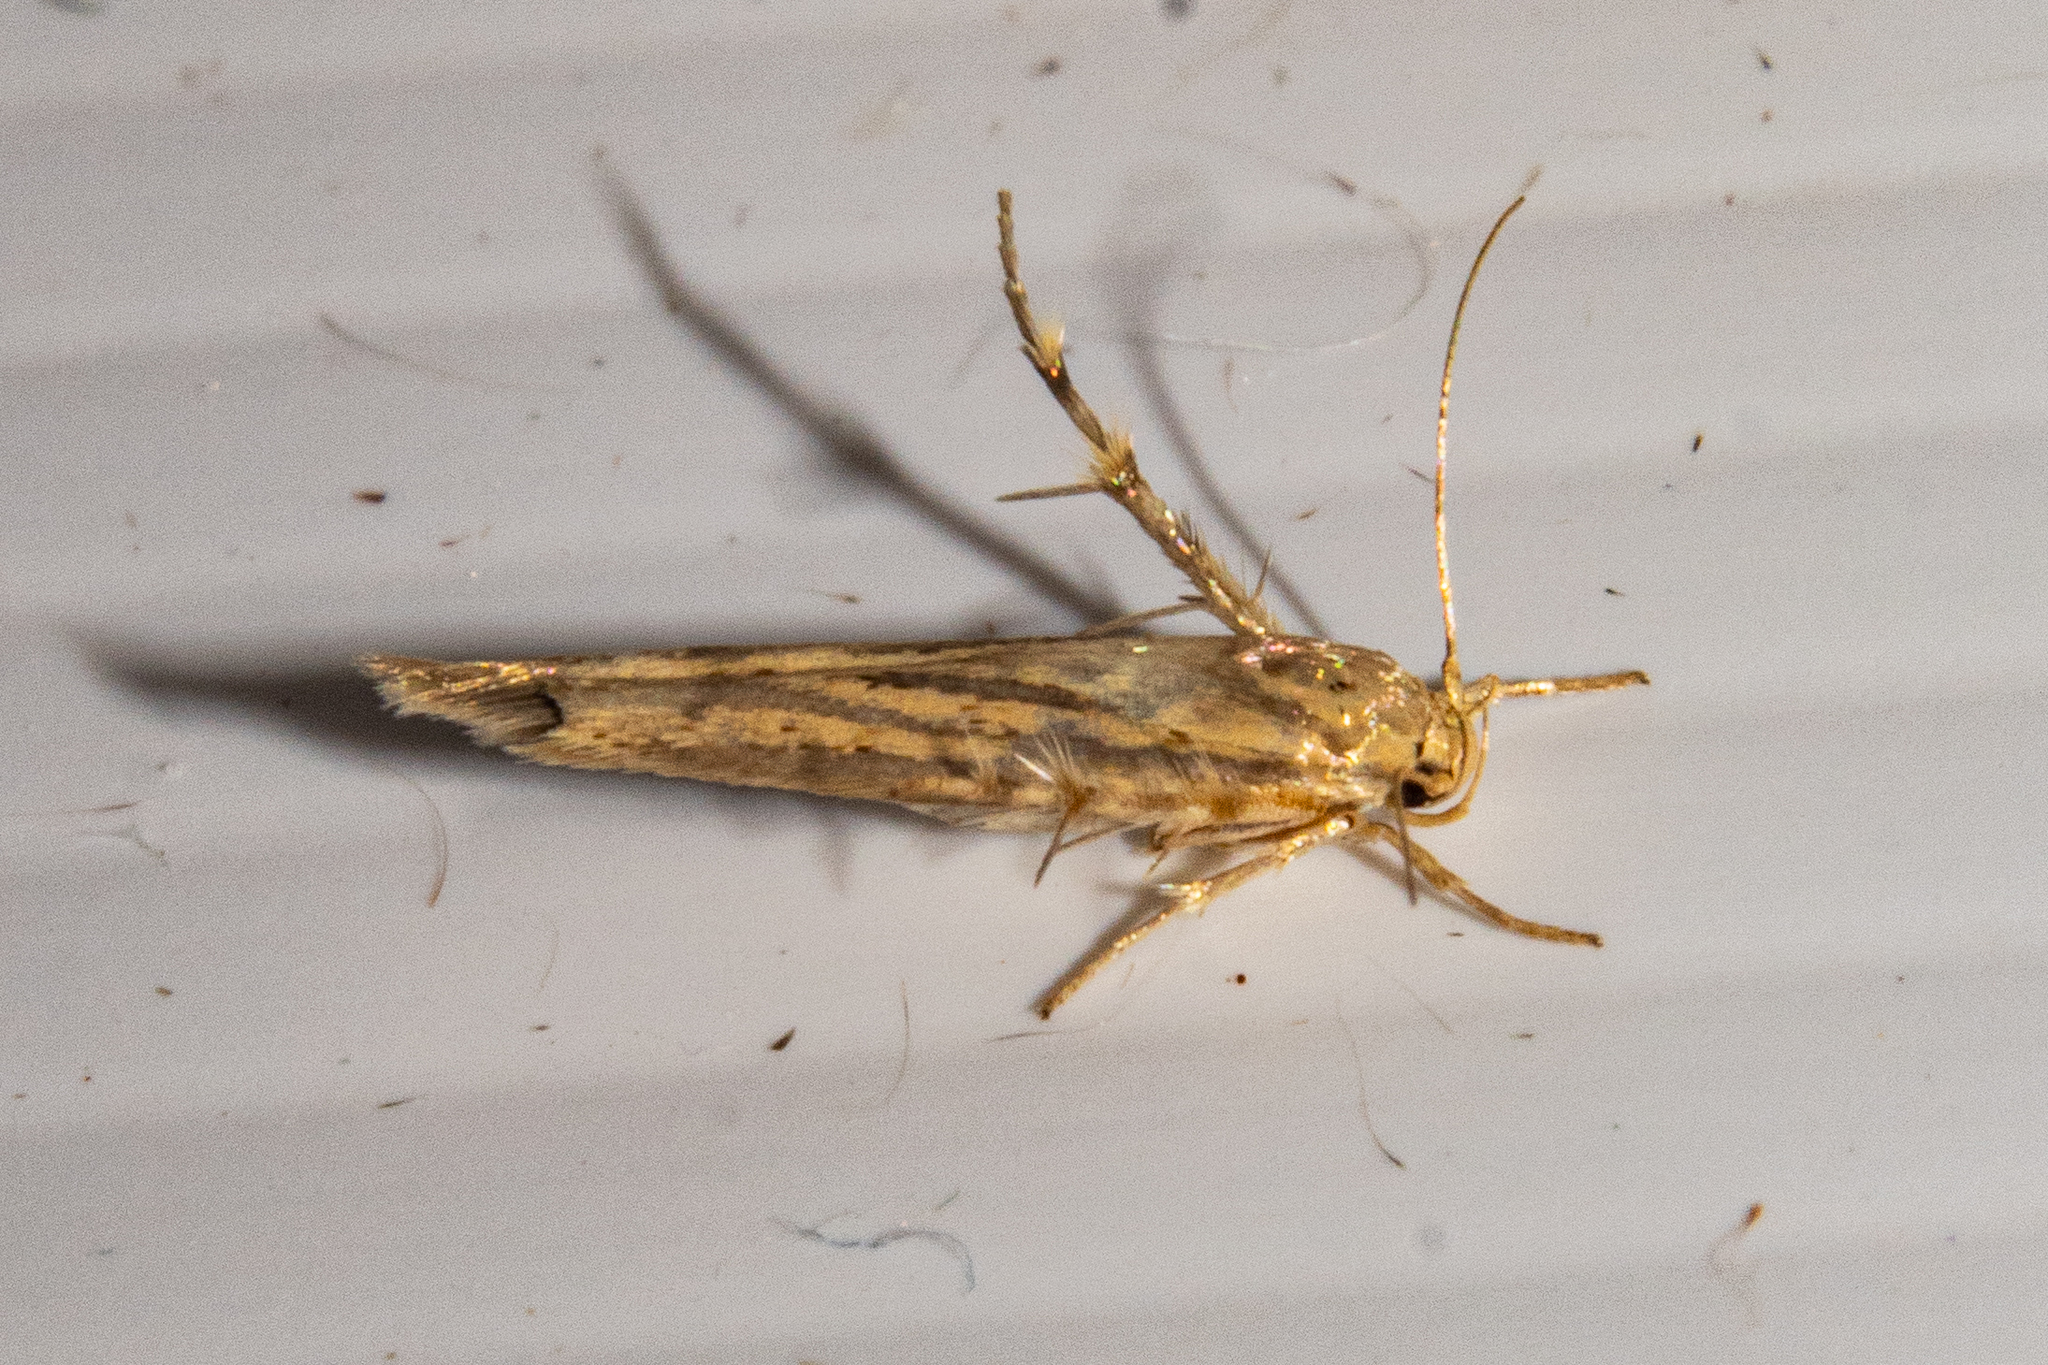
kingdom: Animalia
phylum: Arthropoda
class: Insecta
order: Lepidoptera
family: Stathmopodidae
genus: Stathmopoda
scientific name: Stathmopoda plumbiflua
